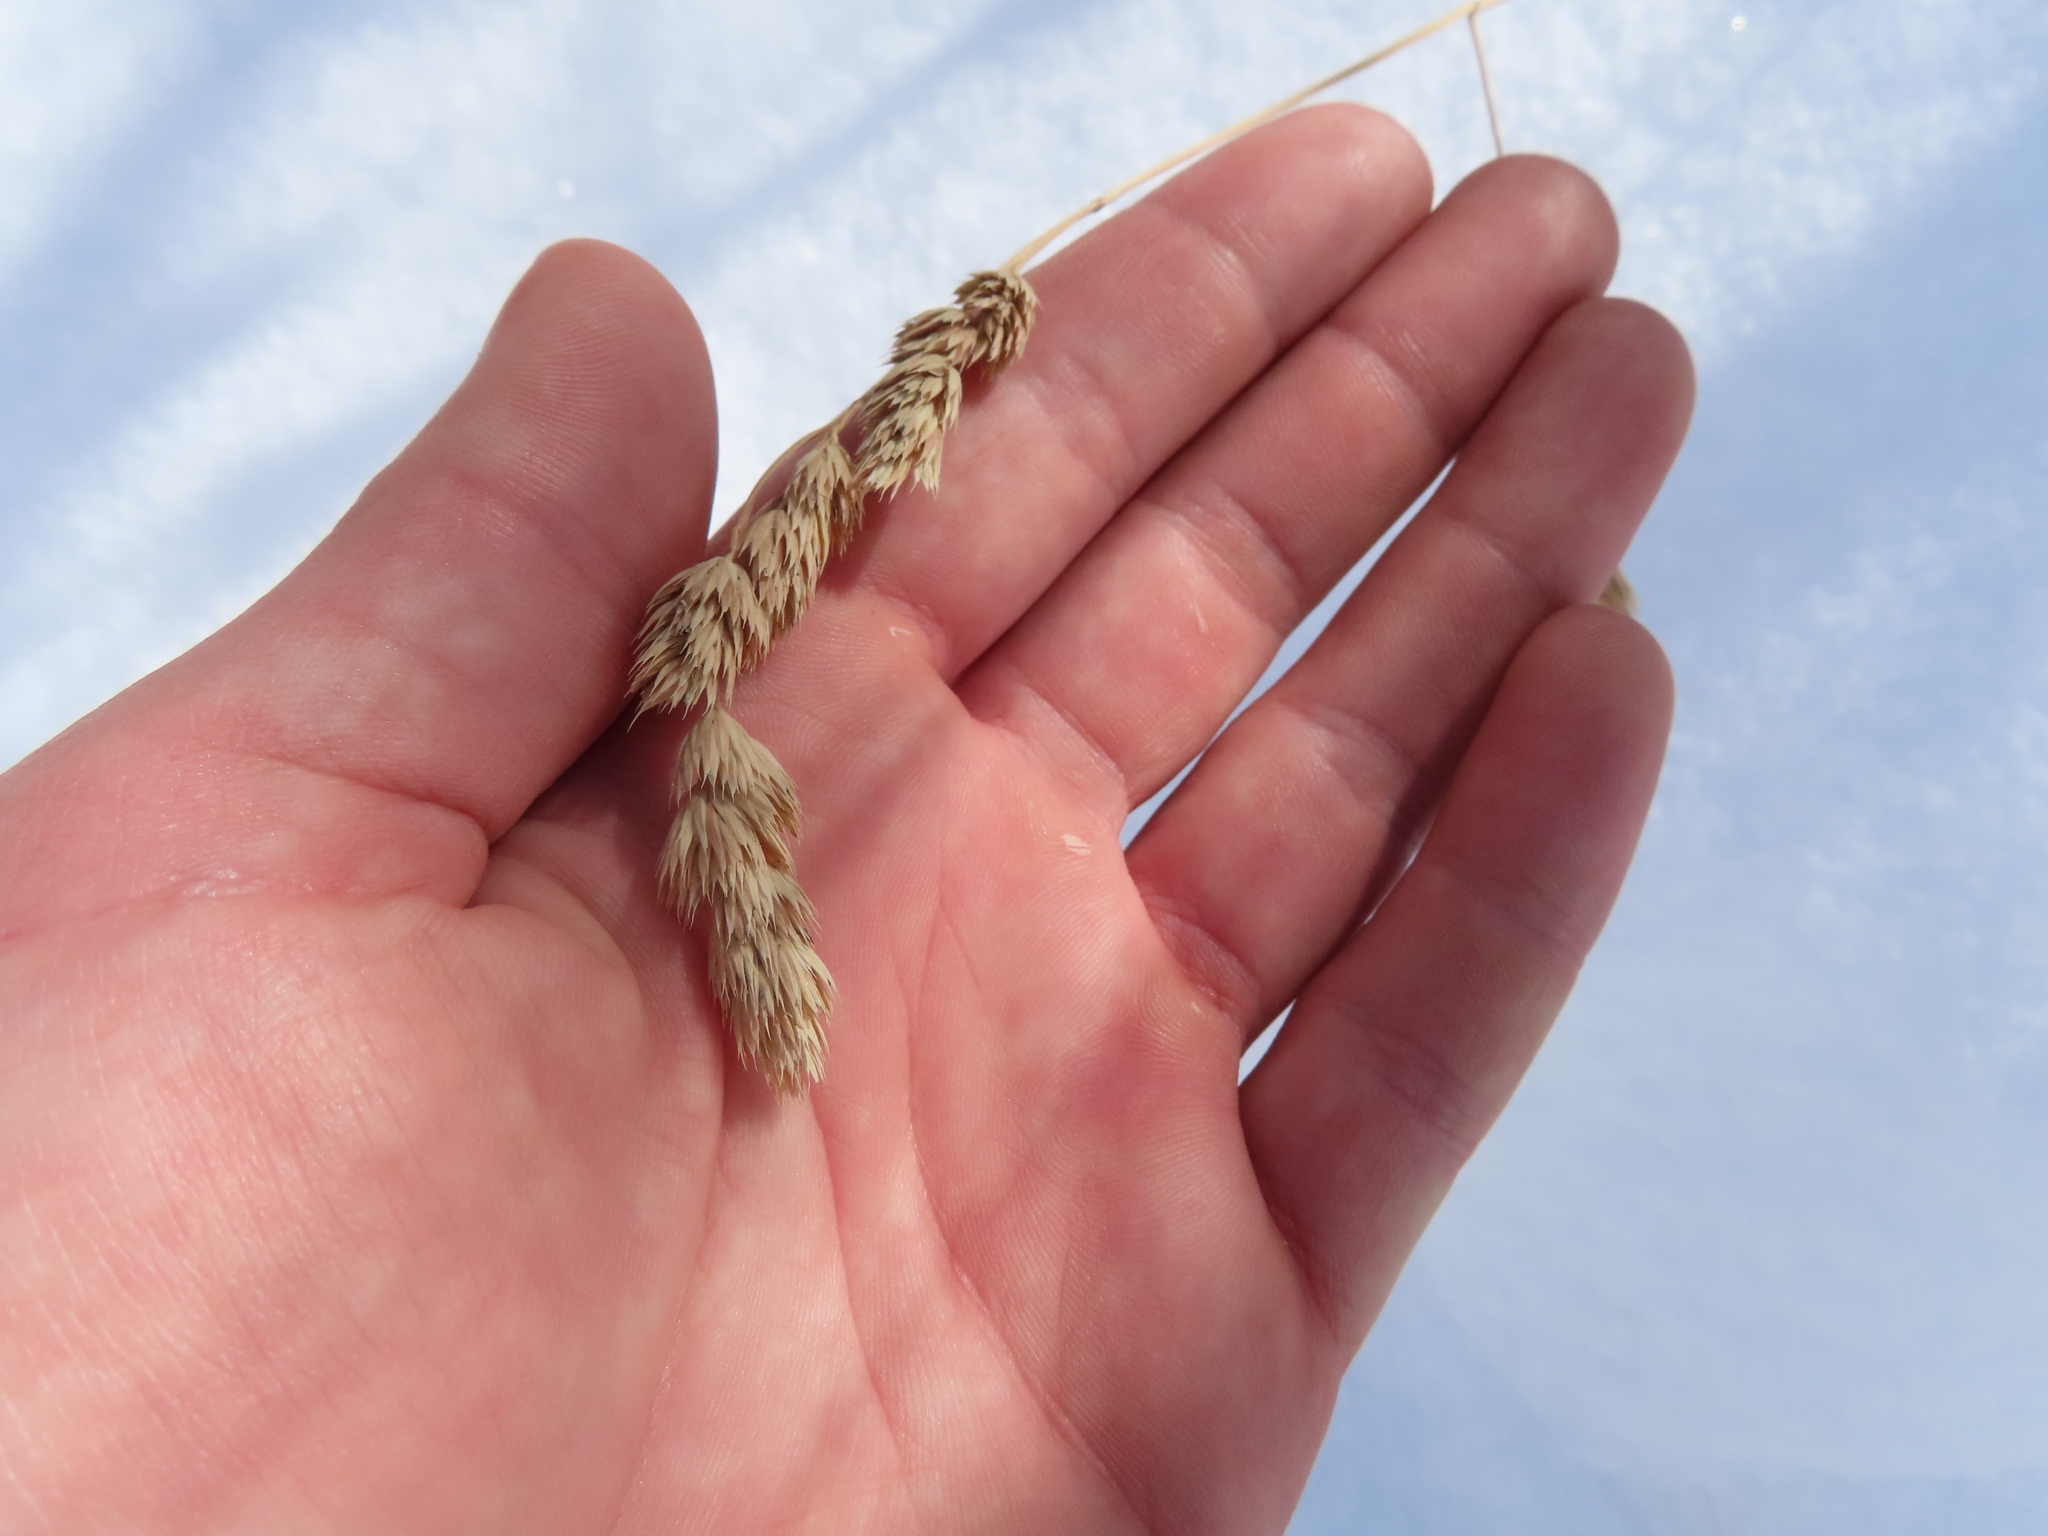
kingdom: Plantae
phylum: Tracheophyta
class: Liliopsida
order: Poales
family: Poaceae
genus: Dactylis
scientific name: Dactylis glomerata
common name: Orchardgrass
